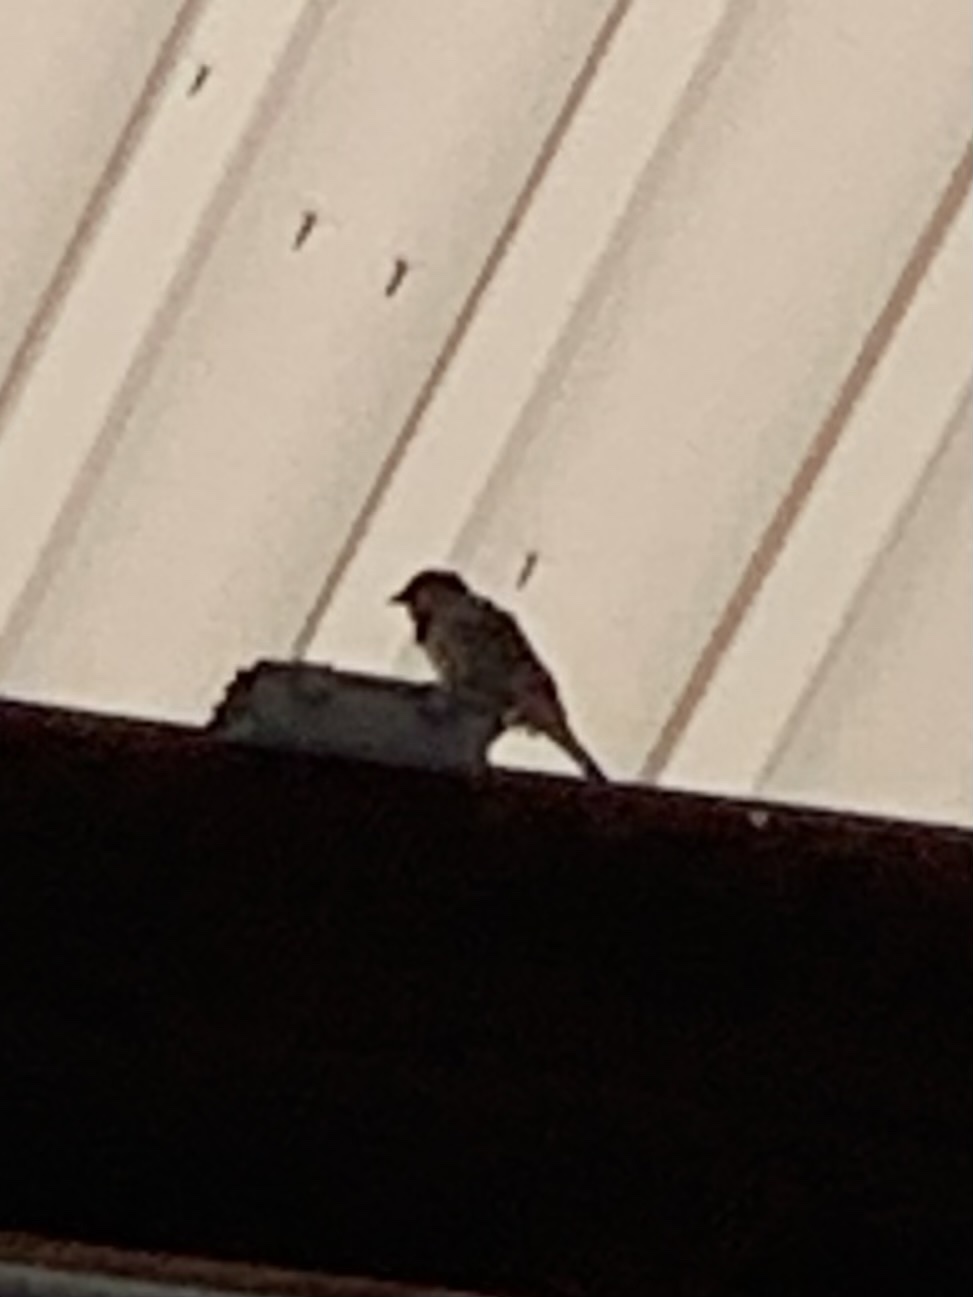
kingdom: Animalia
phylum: Chordata
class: Aves
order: Passeriformes
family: Passeridae
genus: Passer
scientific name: Passer domesticus
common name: House sparrow
